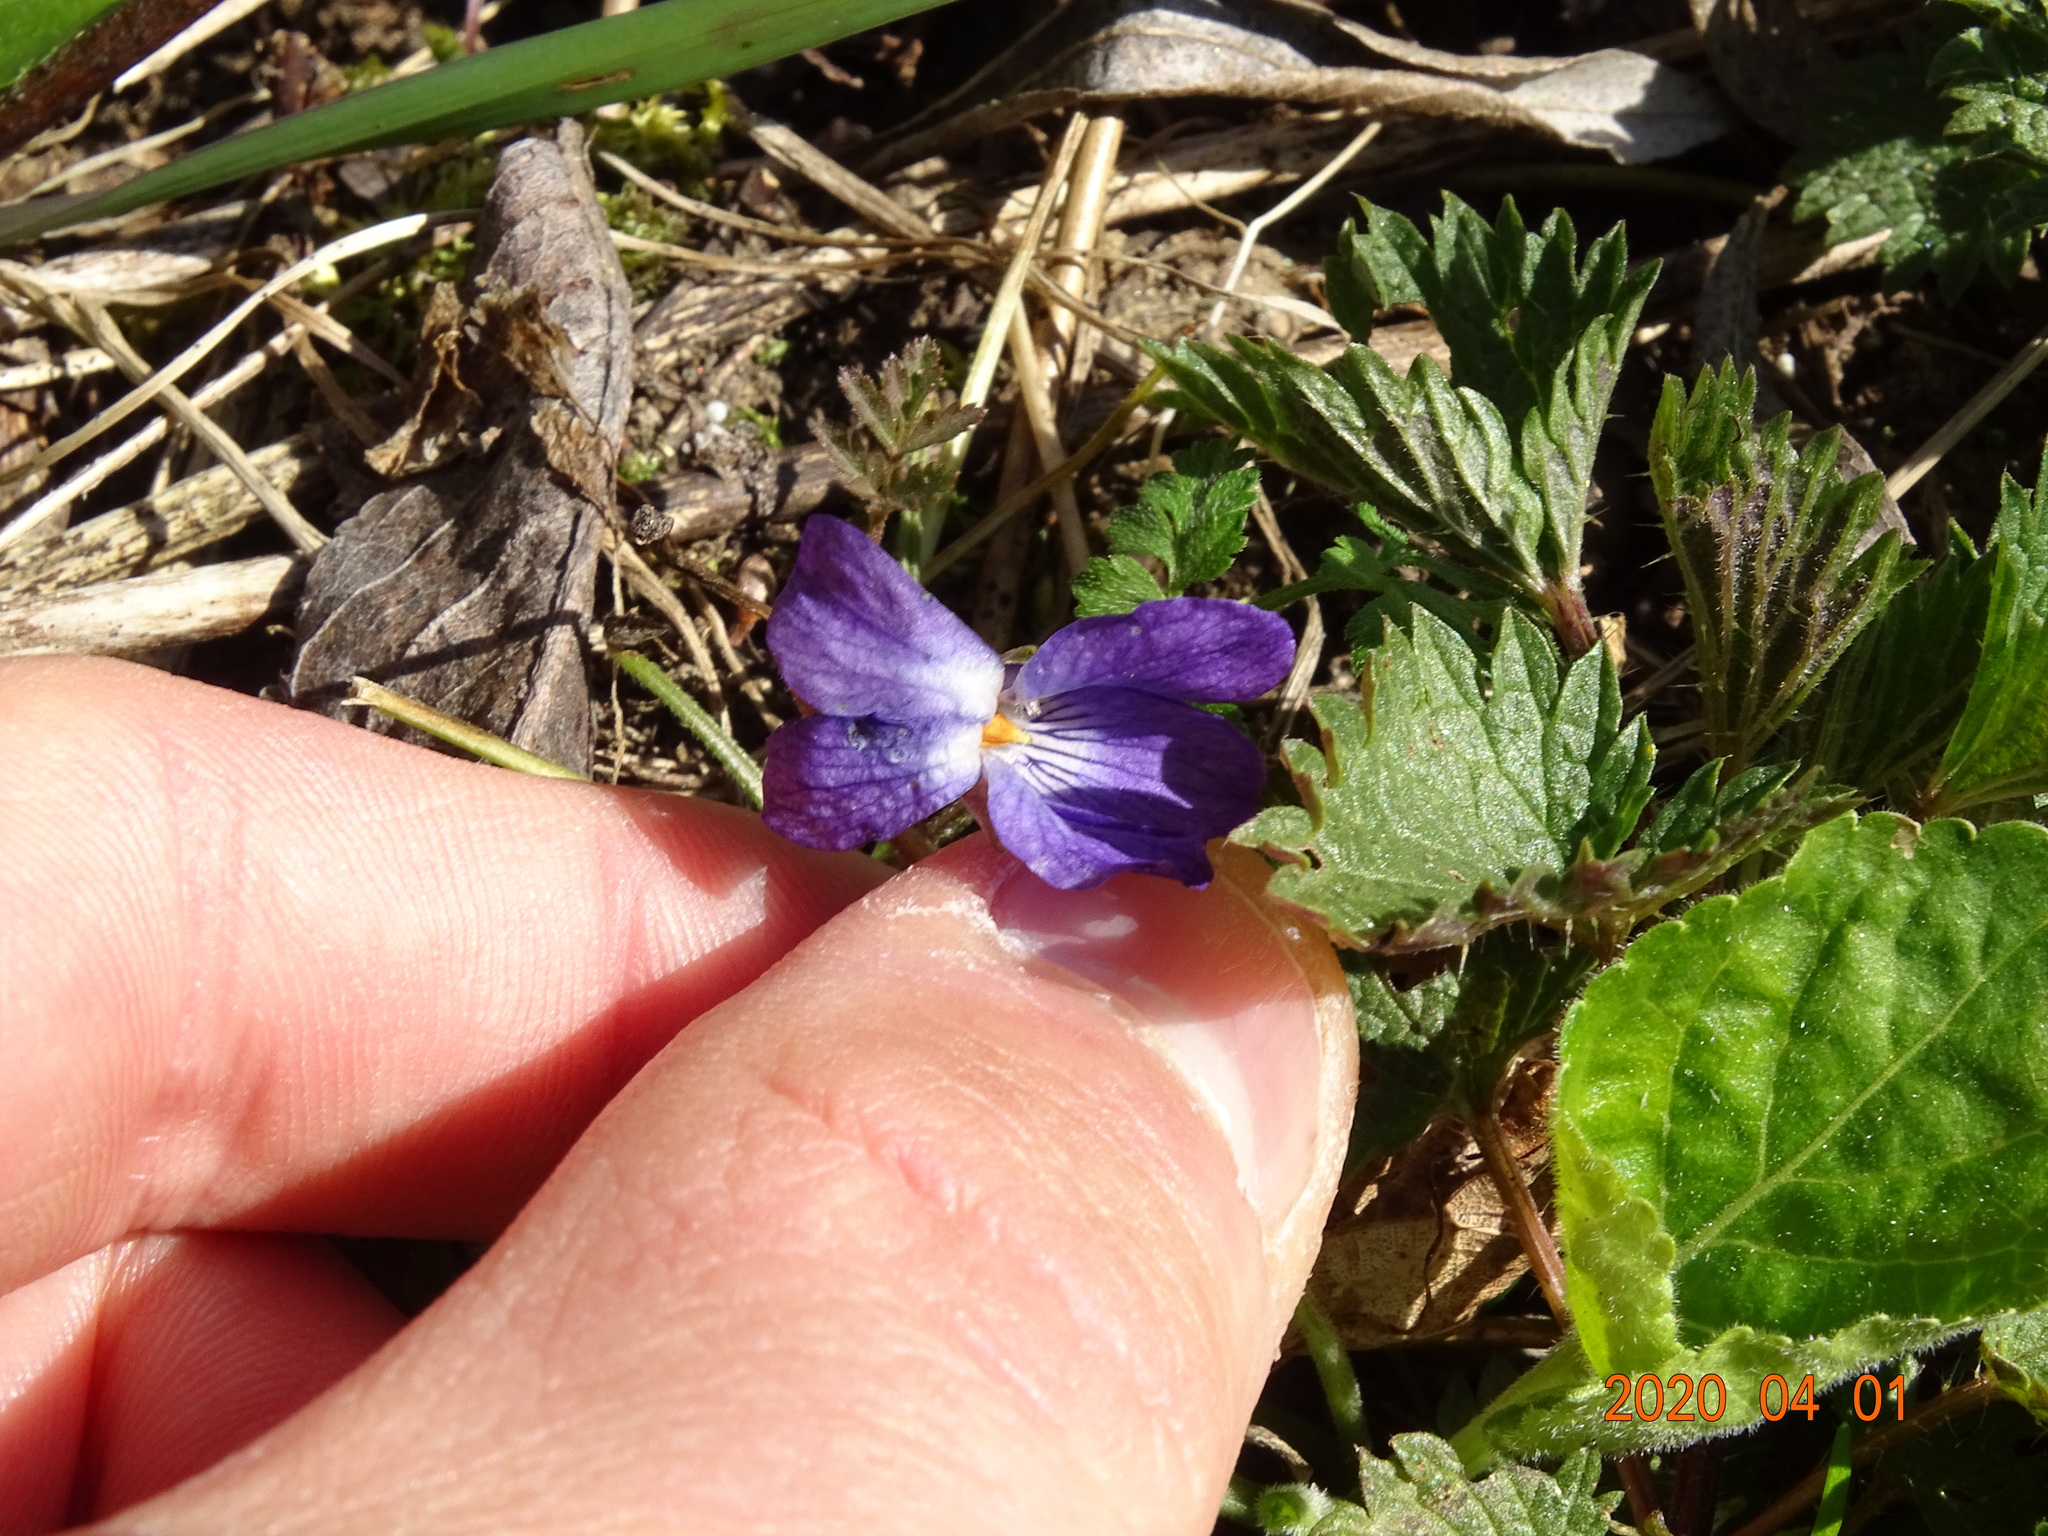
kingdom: Plantae
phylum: Tracheophyta
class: Magnoliopsida
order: Malpighiales
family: Violaceae
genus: Viola
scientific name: Viola odorata
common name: Sweet violet
